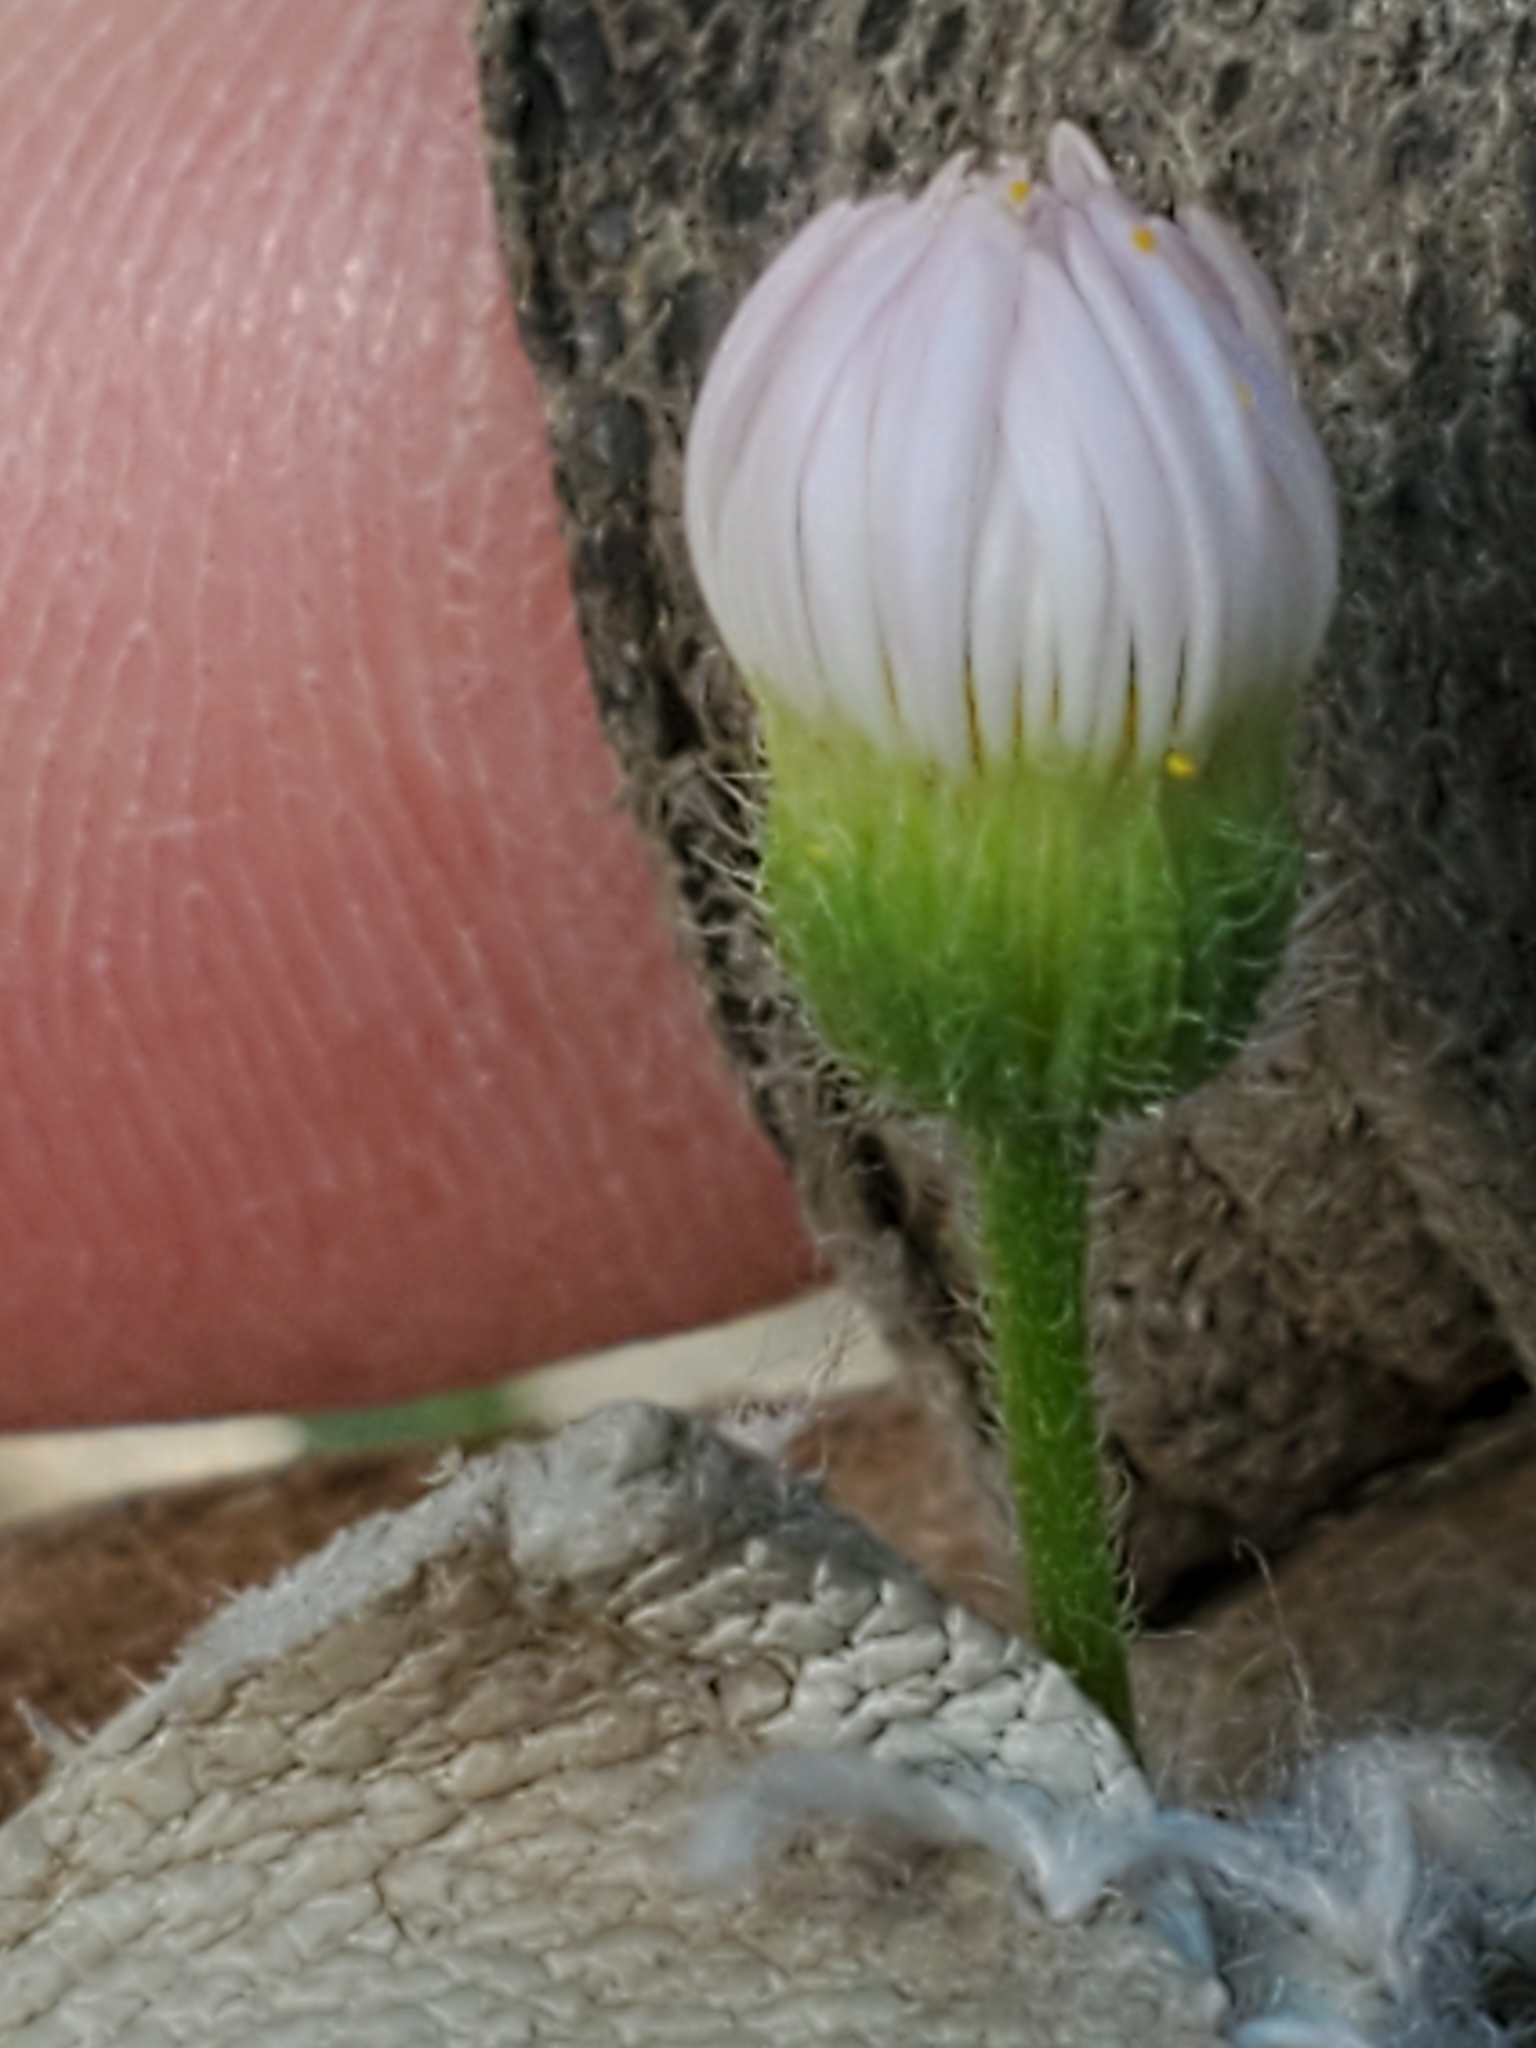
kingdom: Plantae
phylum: Tracheophyta
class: Magnoliopsida
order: Asterales
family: Asteraceae
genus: Erigeron
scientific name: Erigeron modestus
